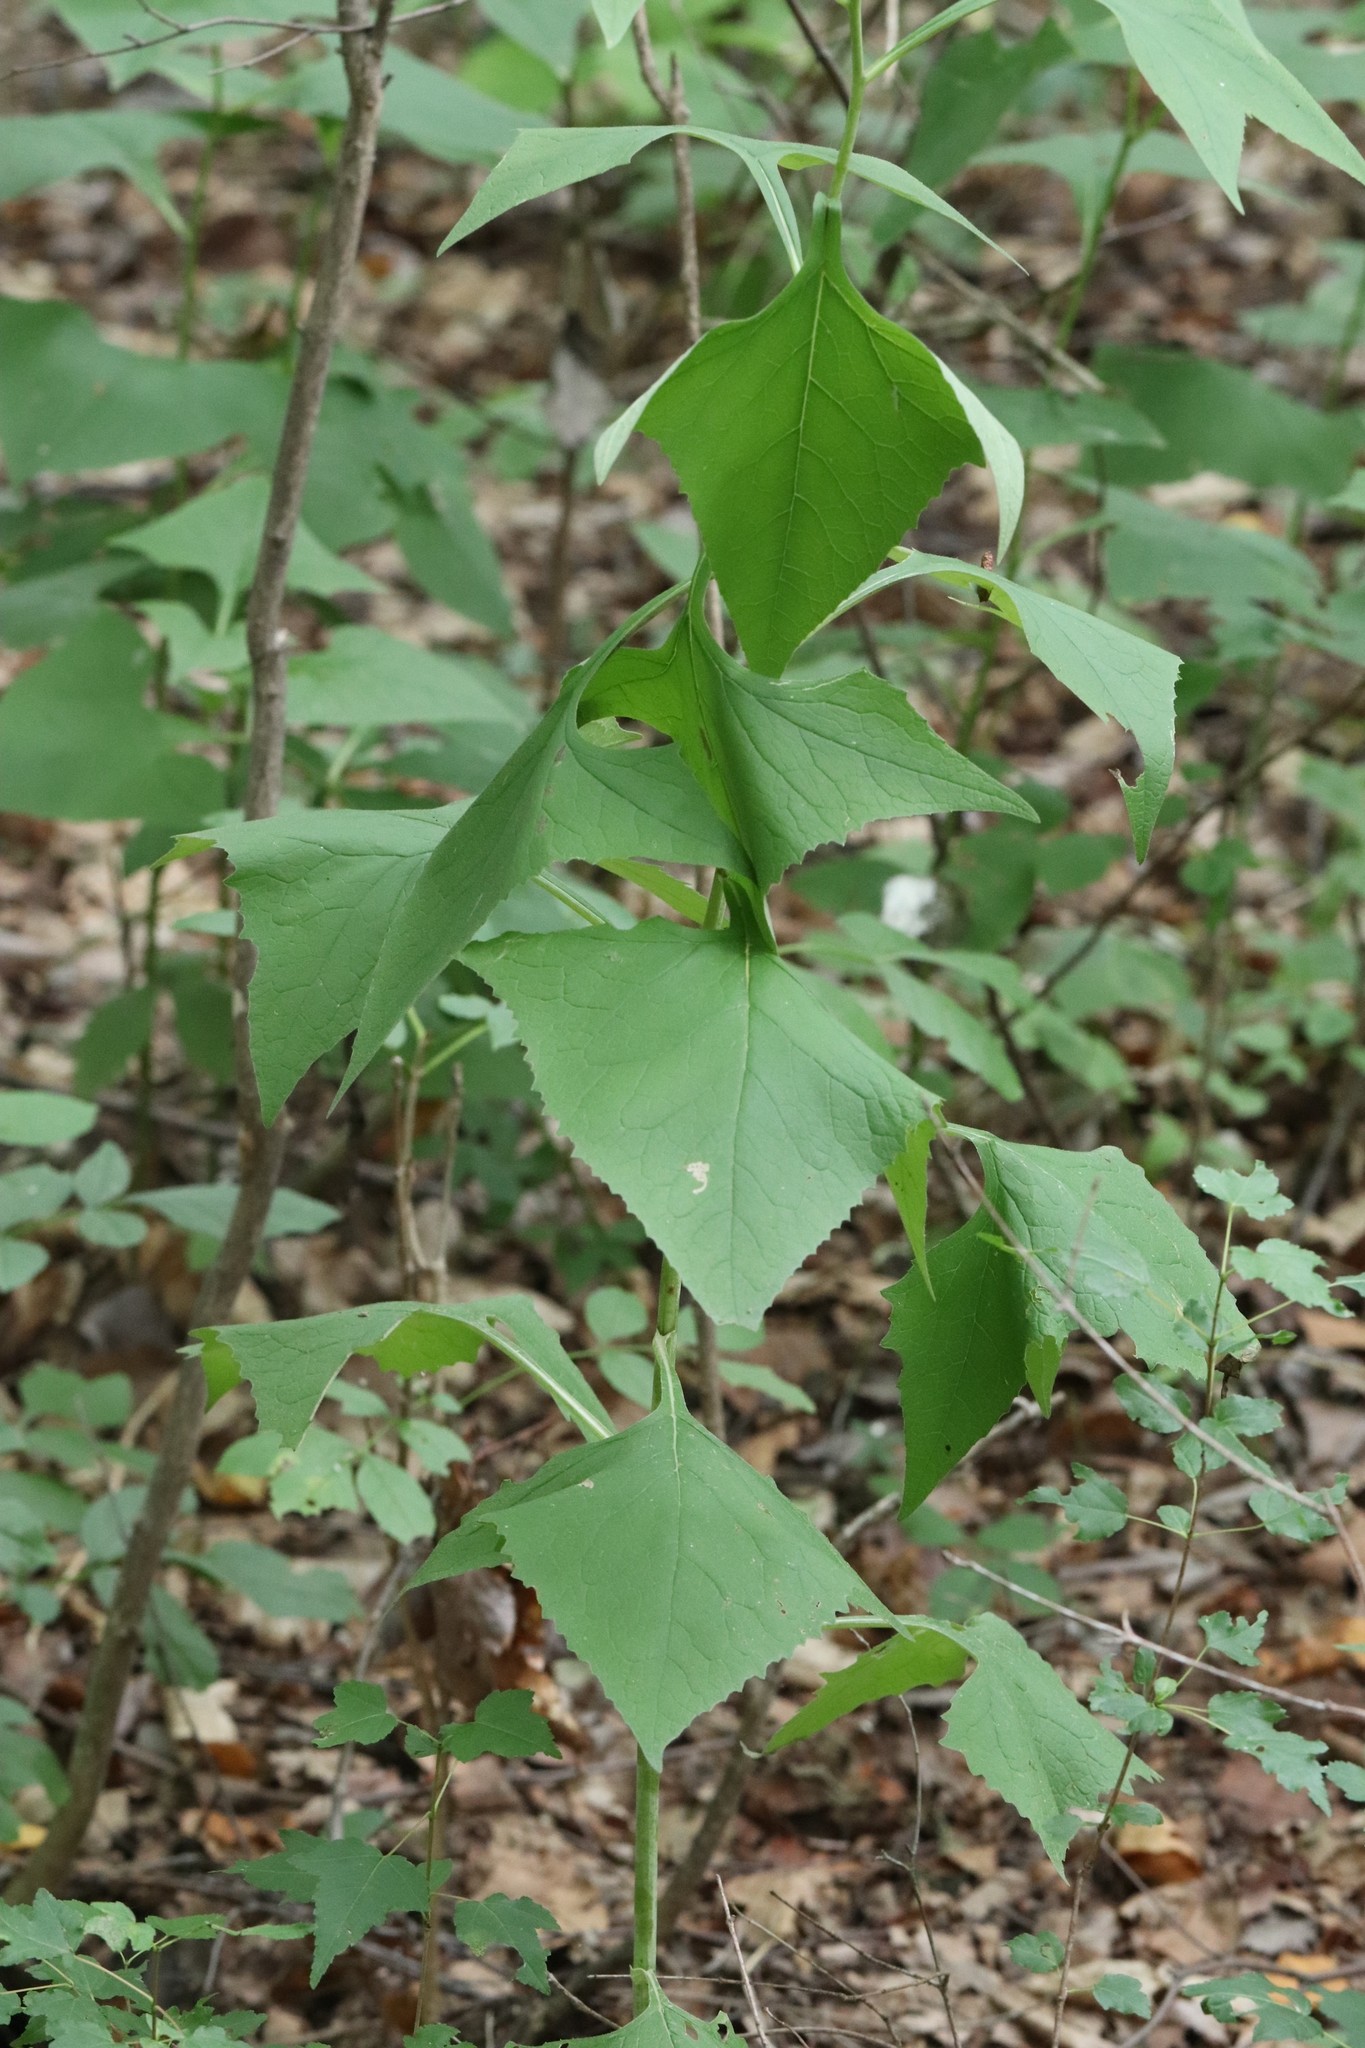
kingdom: Plantae
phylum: Tracheophyta
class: Magnoliopsida
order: Asterales
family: Asteraceae
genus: Parasenecio
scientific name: Parasenecio hastatus
